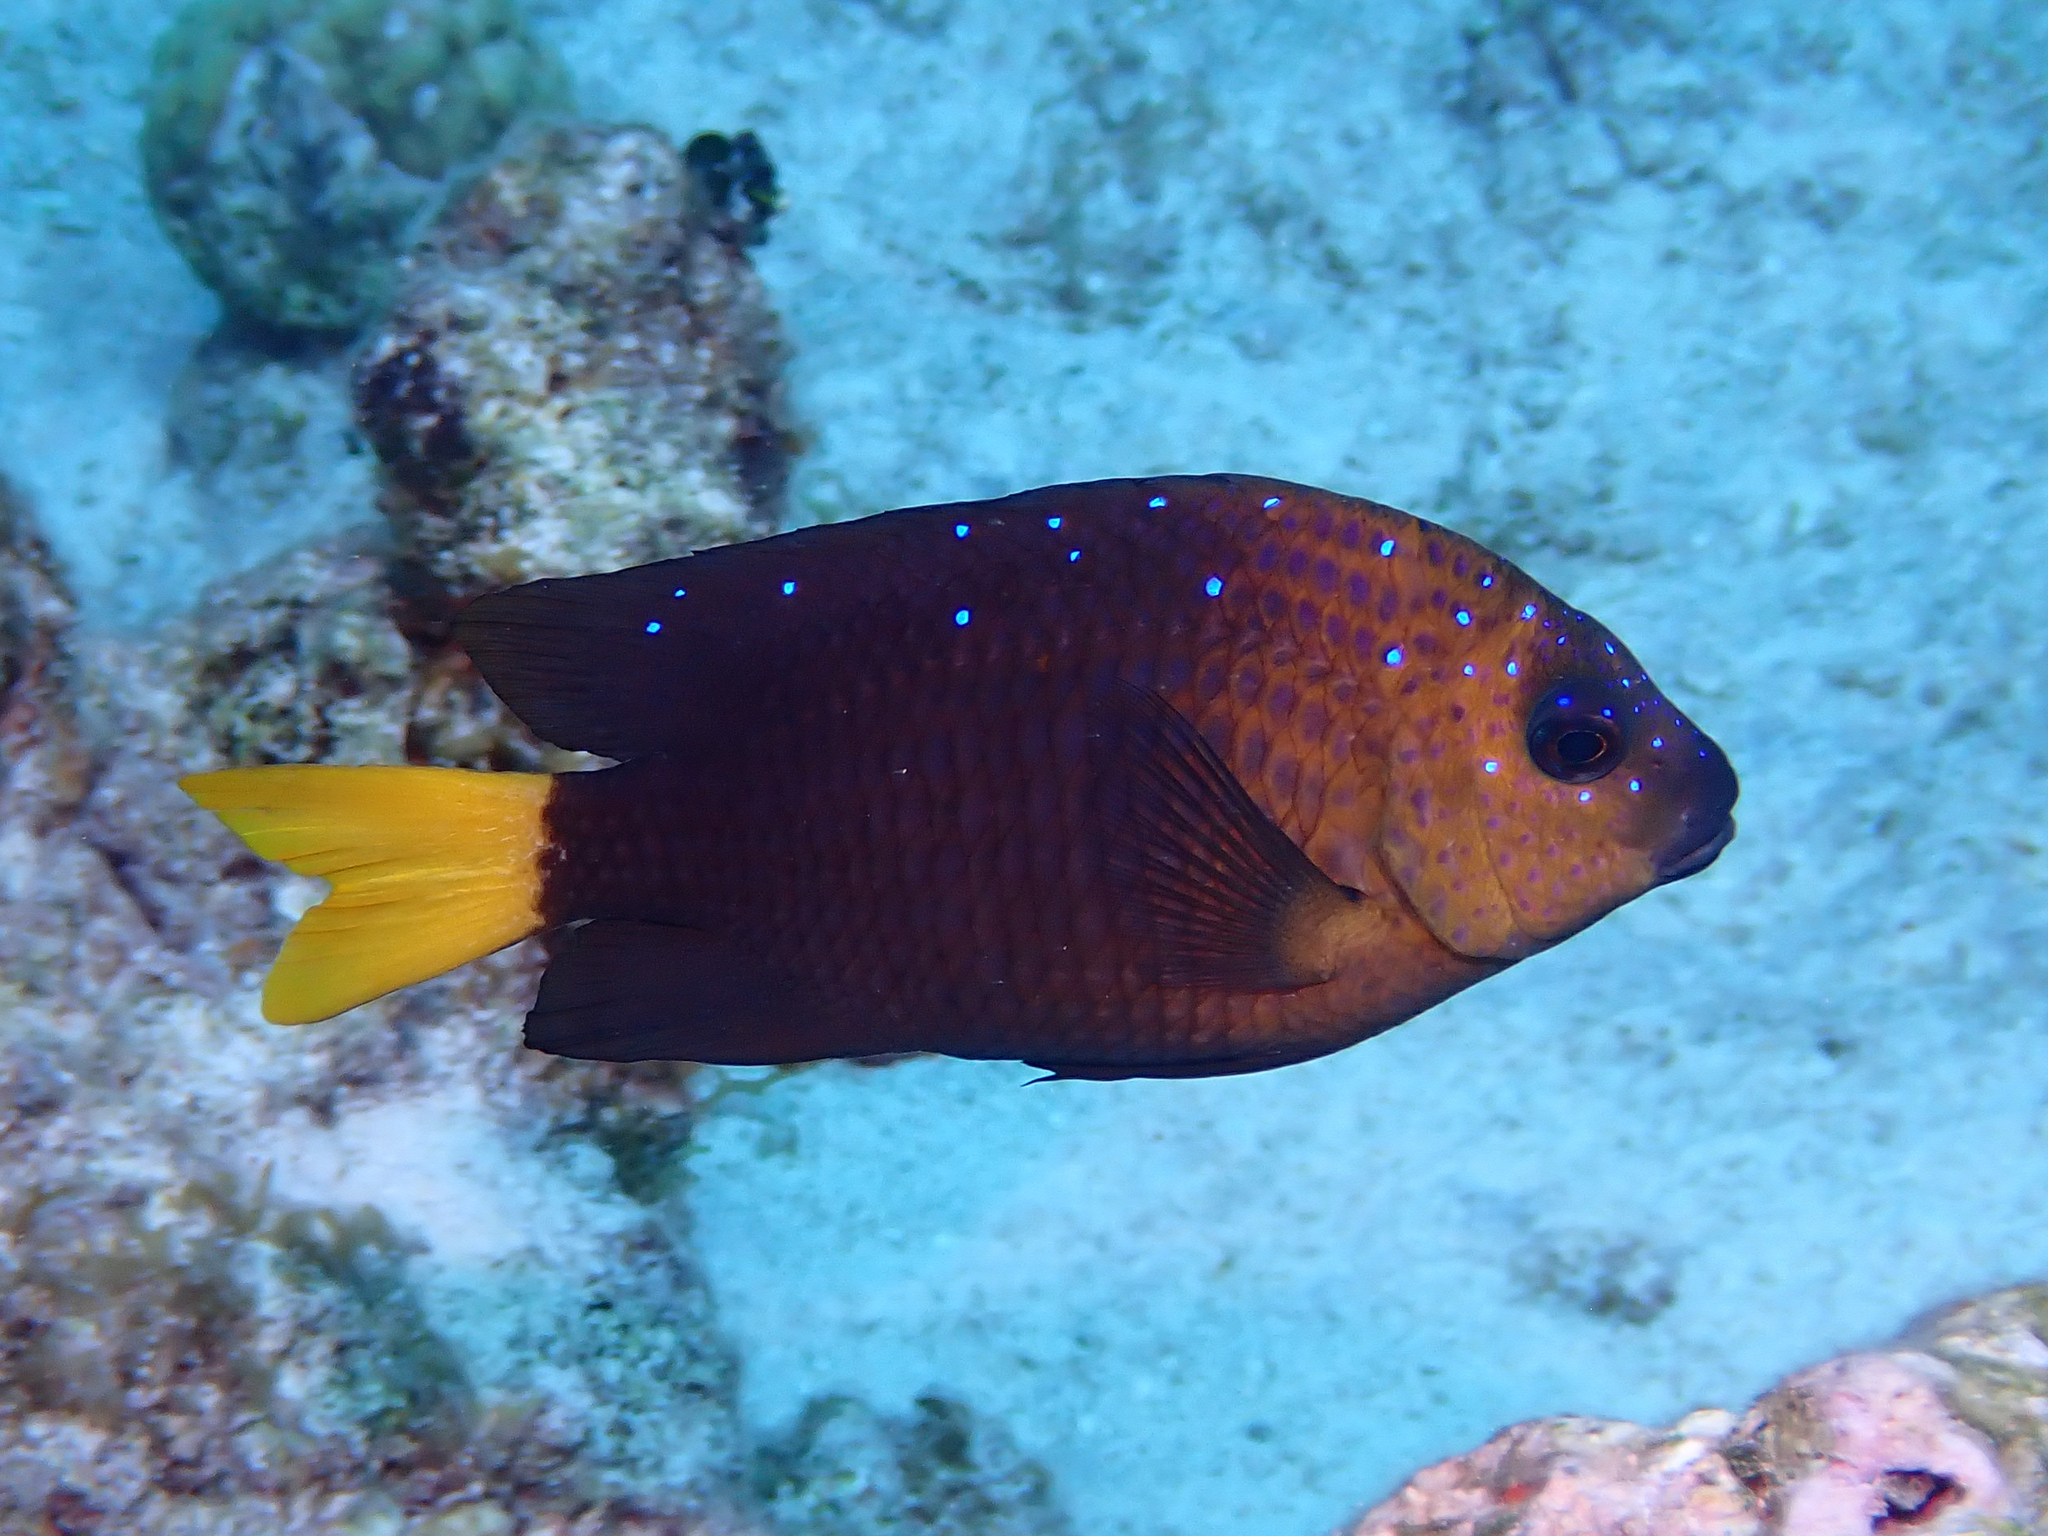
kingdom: Animalia
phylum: Chordata
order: Perciformes
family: Pomacentridae
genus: Microspathodon
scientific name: Microspathodon chrysurus
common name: Yellowtail damselfish
